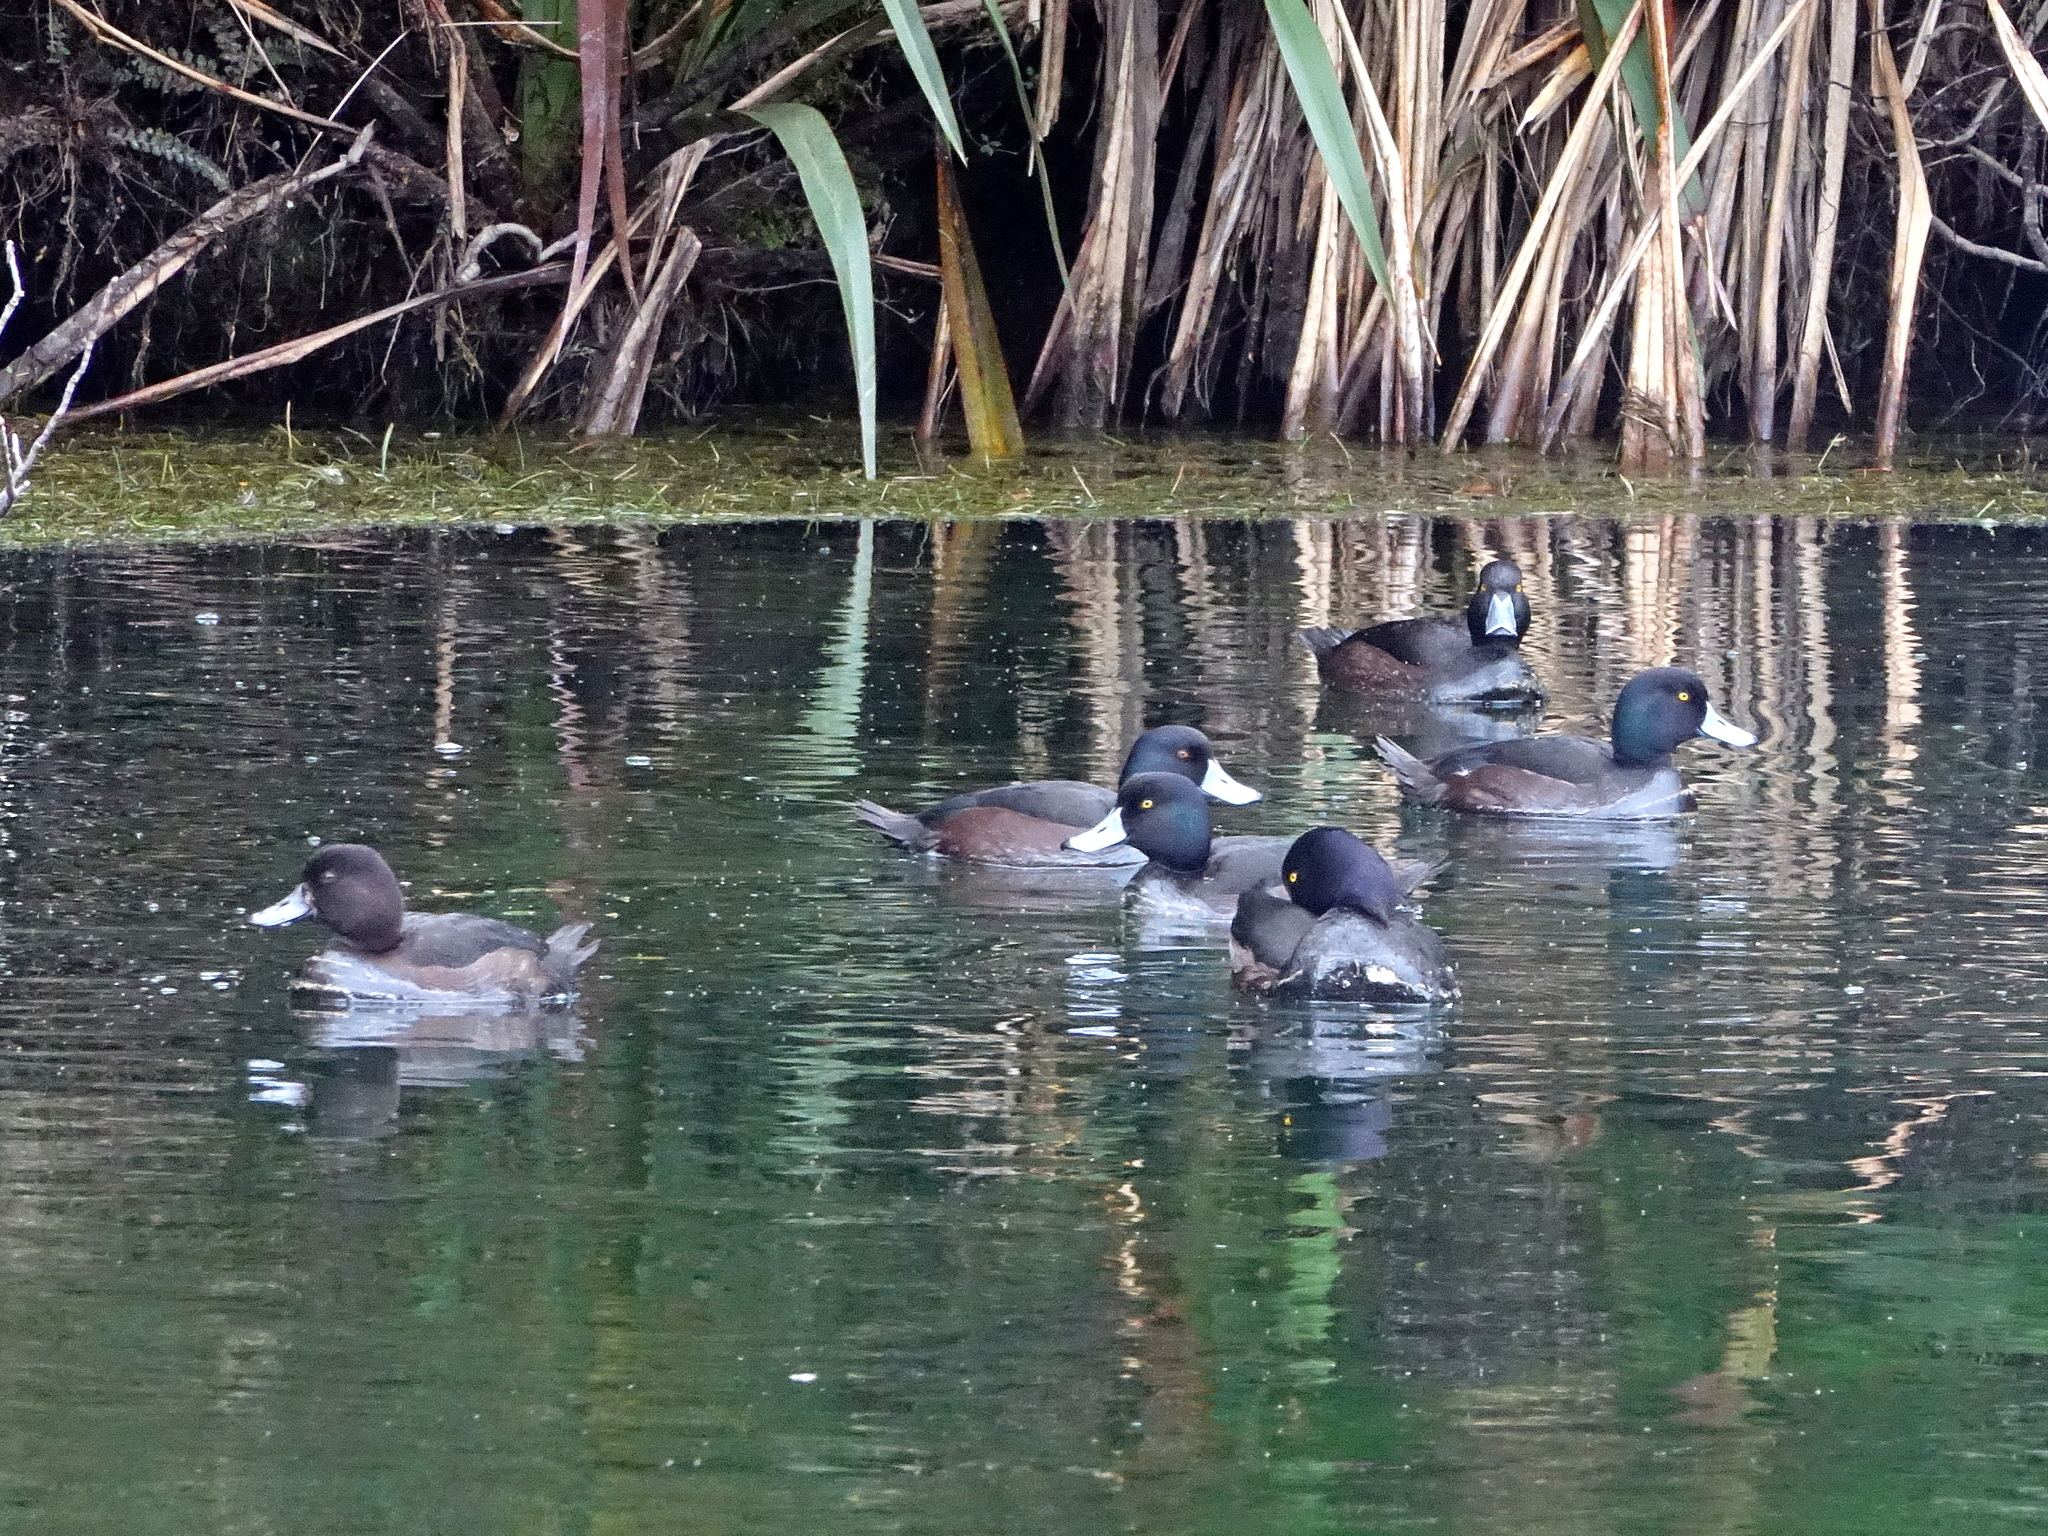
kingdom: Animalia
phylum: Chordata
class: Aves
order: Anseriformes
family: Anatidae
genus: Aythya
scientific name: Aythya novaeseelandiae
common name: New zealand scaup
